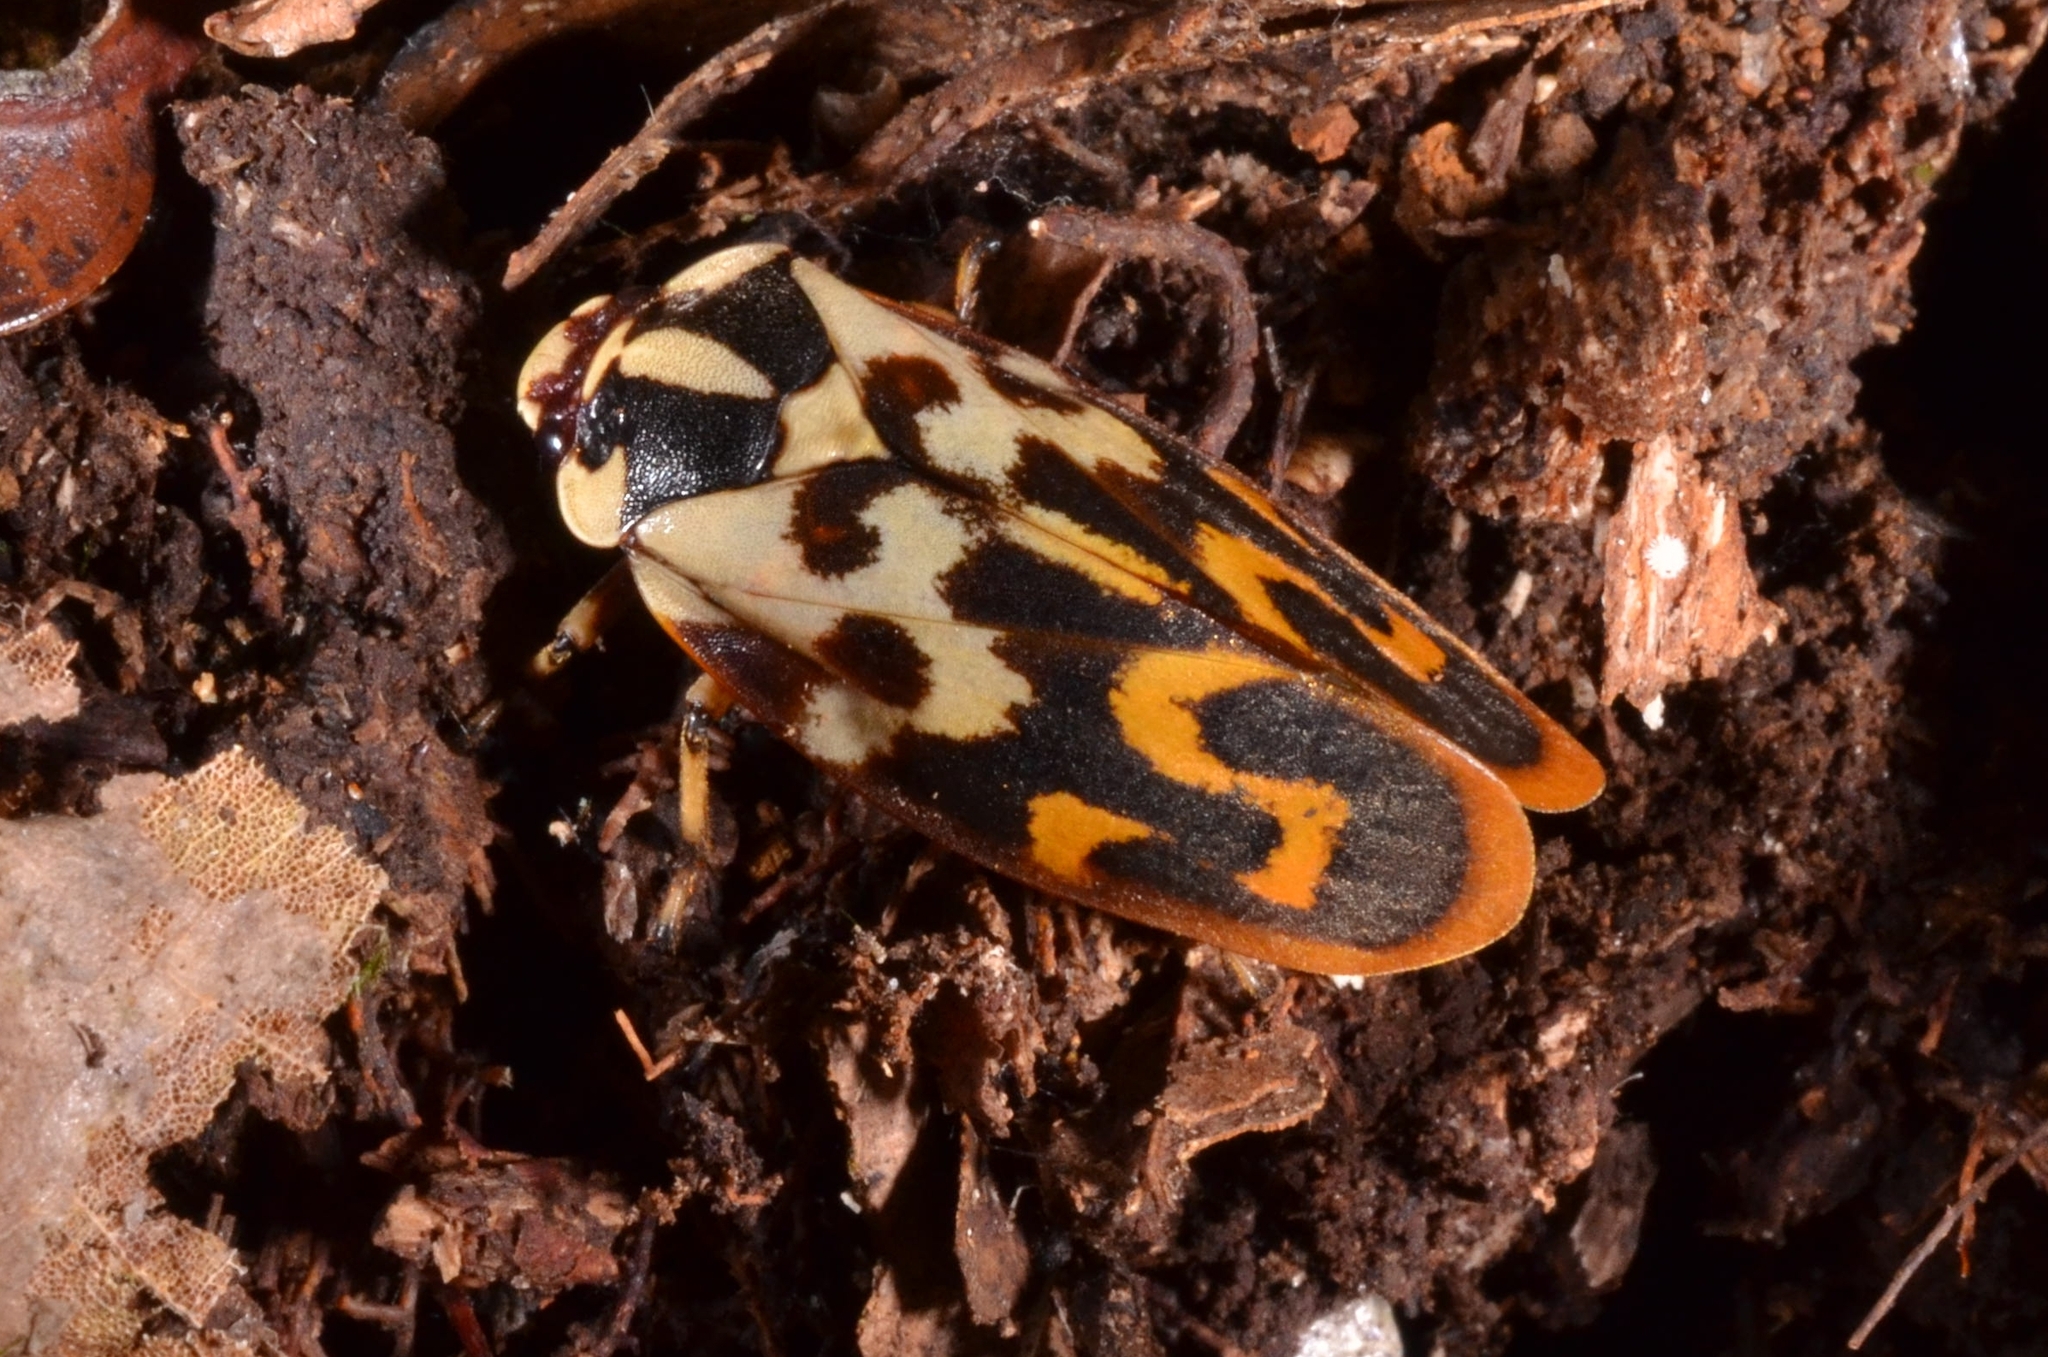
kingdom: Animalia
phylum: Arthropoda
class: Insecta
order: Hemiptera
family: Cercopidae
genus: Phymatostetha
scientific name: Phymatostetha signifera
